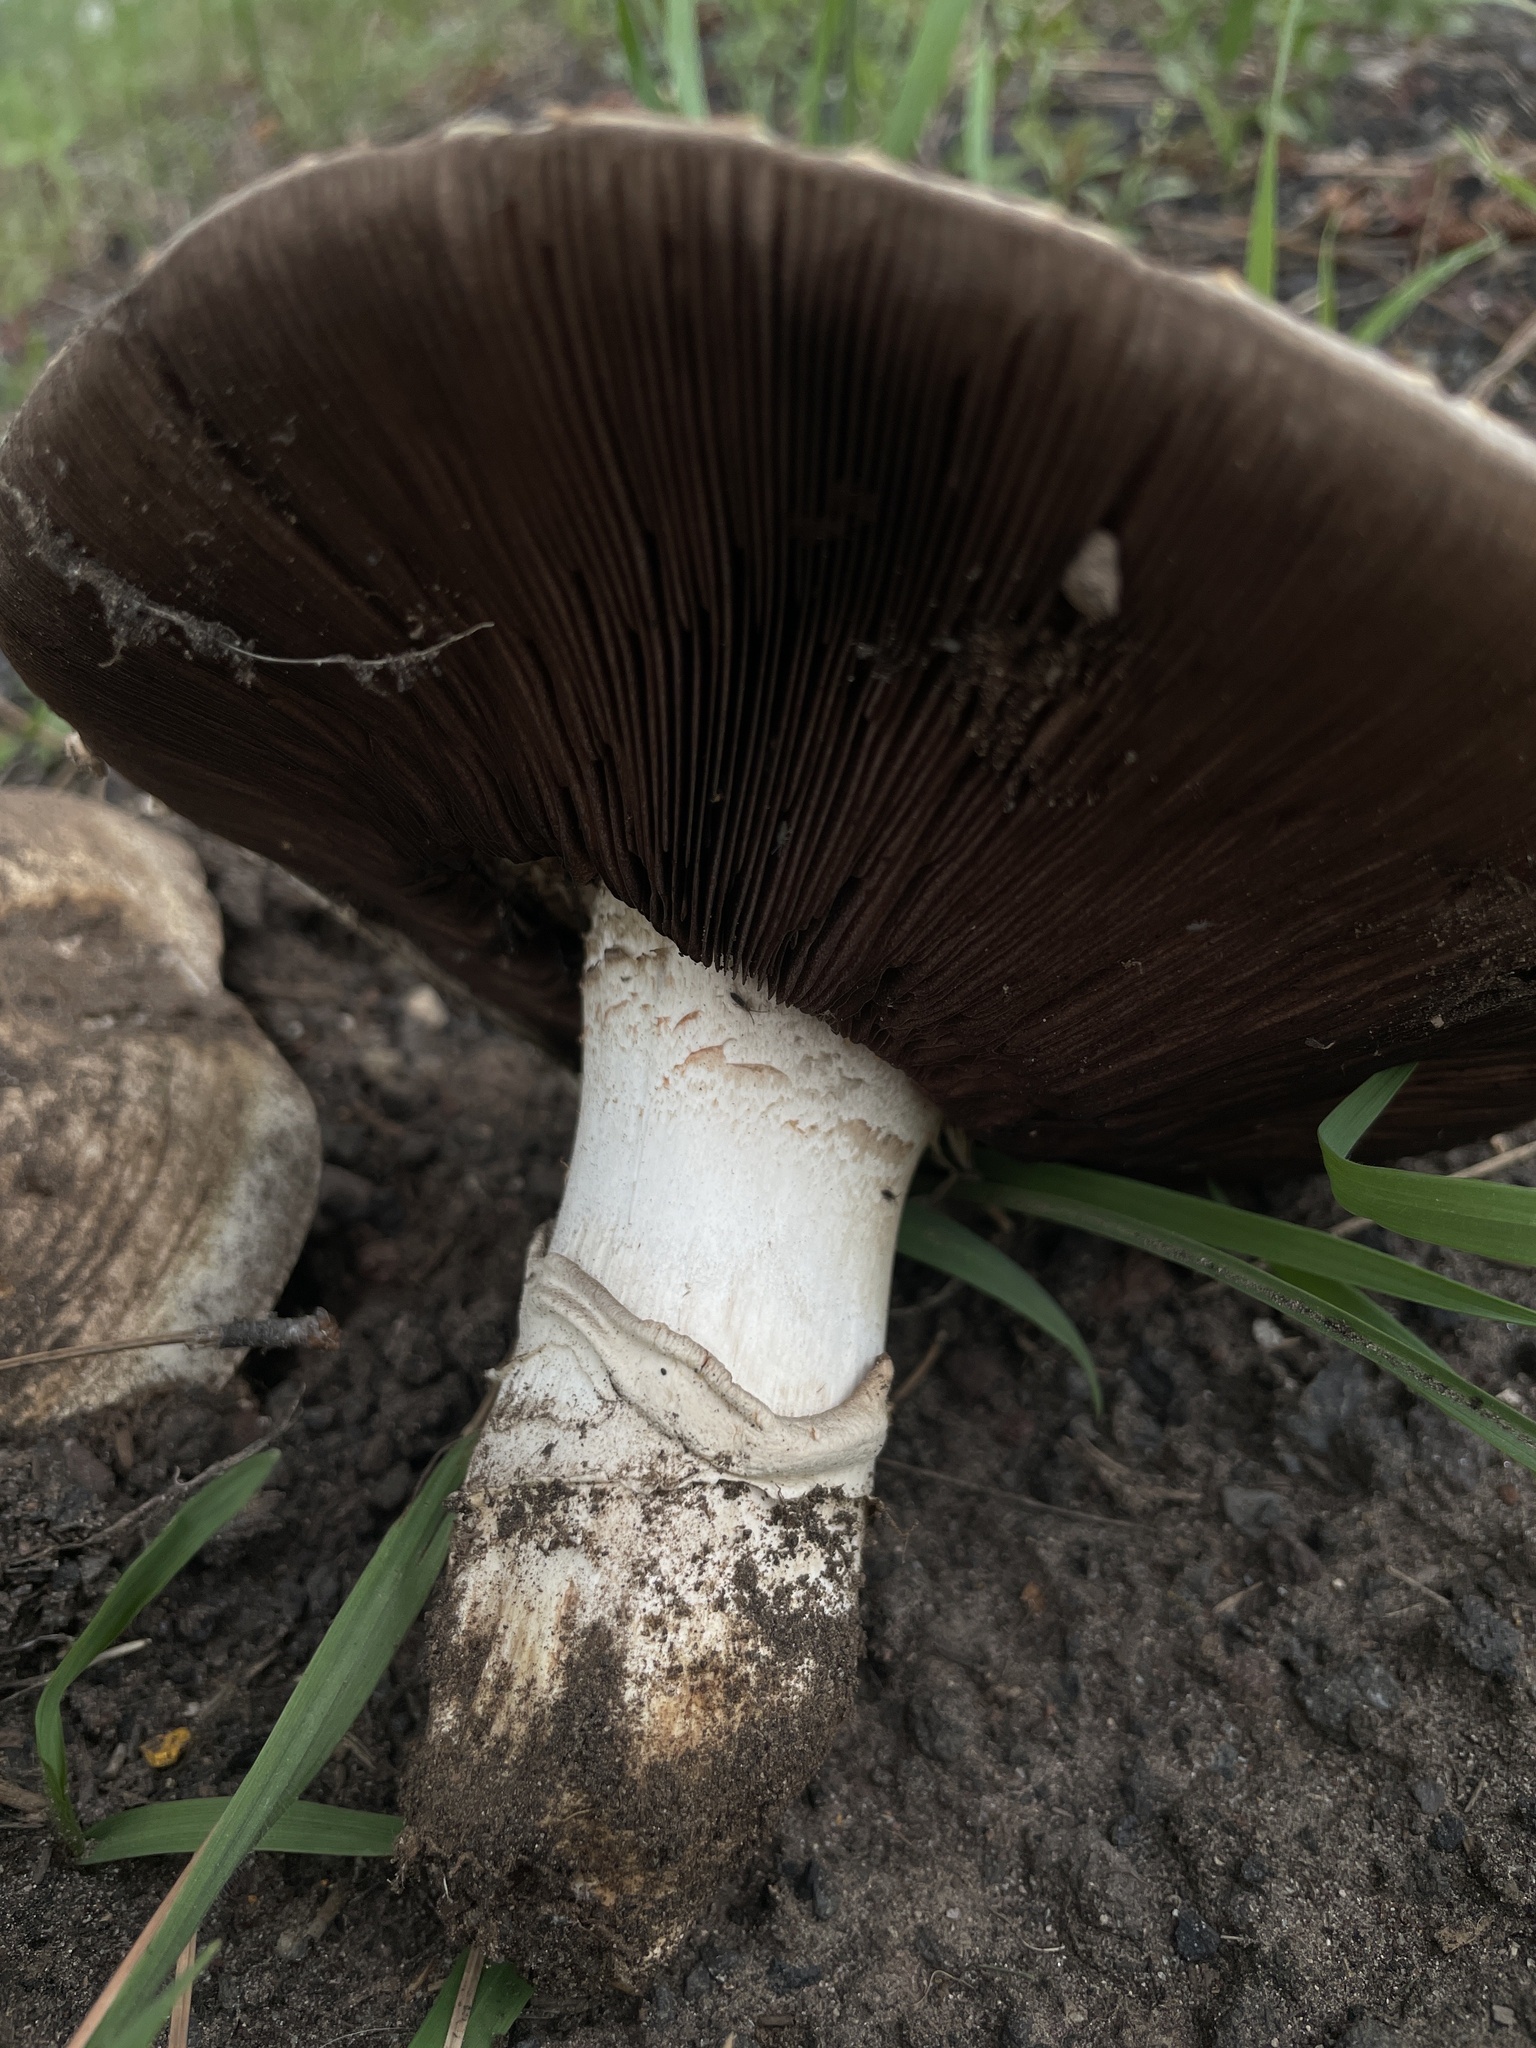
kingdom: Fungi
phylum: Basidiomycota
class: Agaricomycetes
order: Agaricales
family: Agaricaceae
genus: Agaricus
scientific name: Agaricus bitorquis
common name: Pavement mushroom
